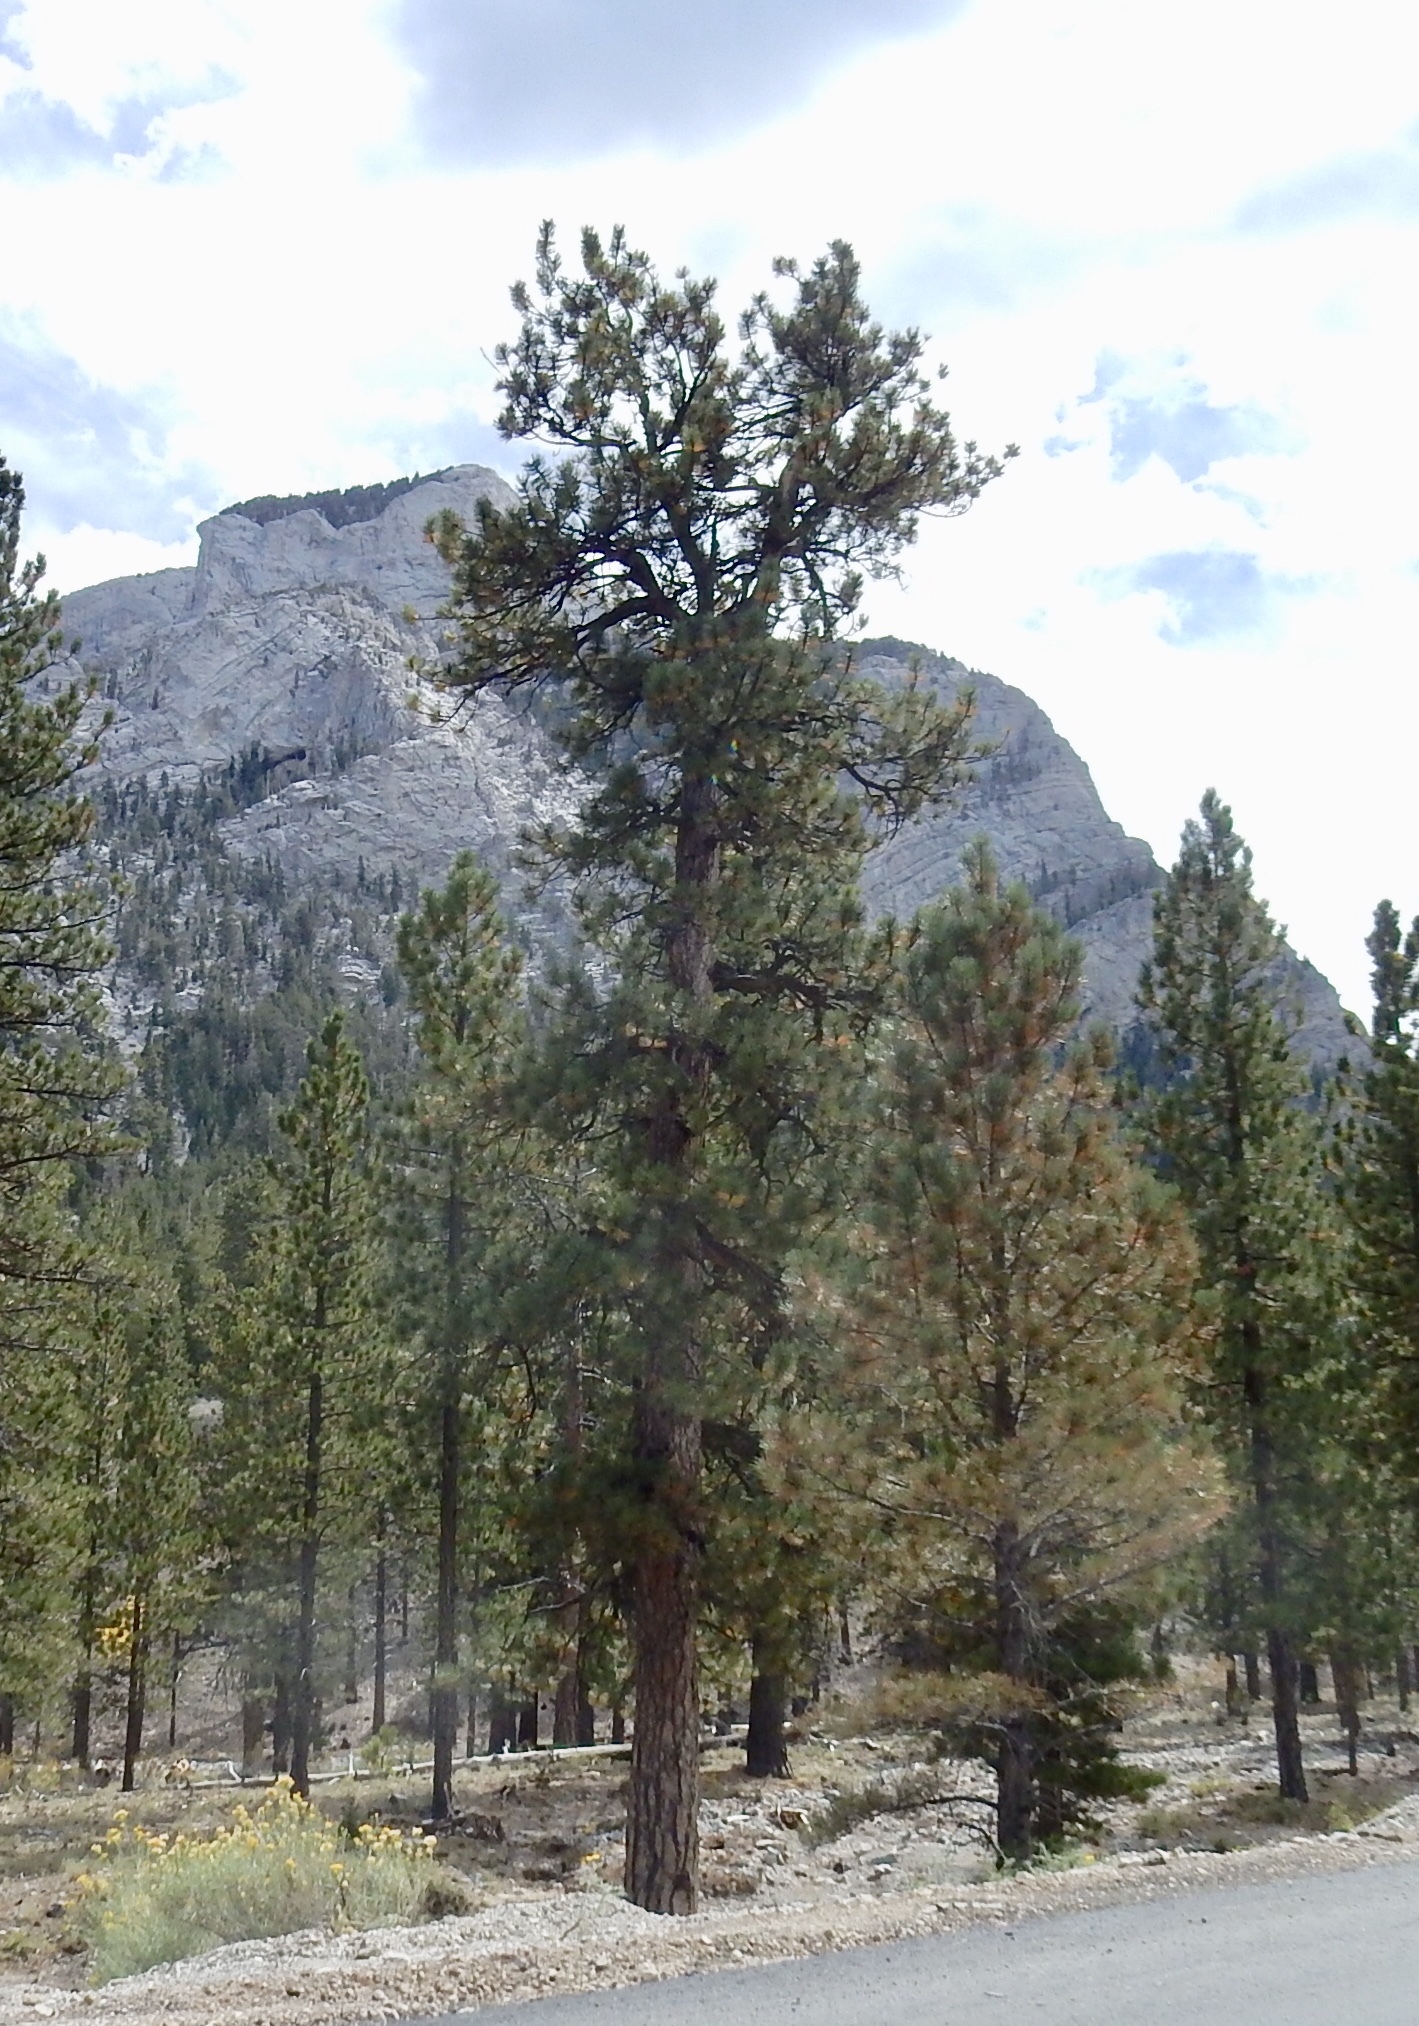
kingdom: Plantae
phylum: Tracheophyta
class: Pinopsida
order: Pinales
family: Pinaceae
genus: Pinus
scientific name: Pinus ponderosa
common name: Western yellow-pine
